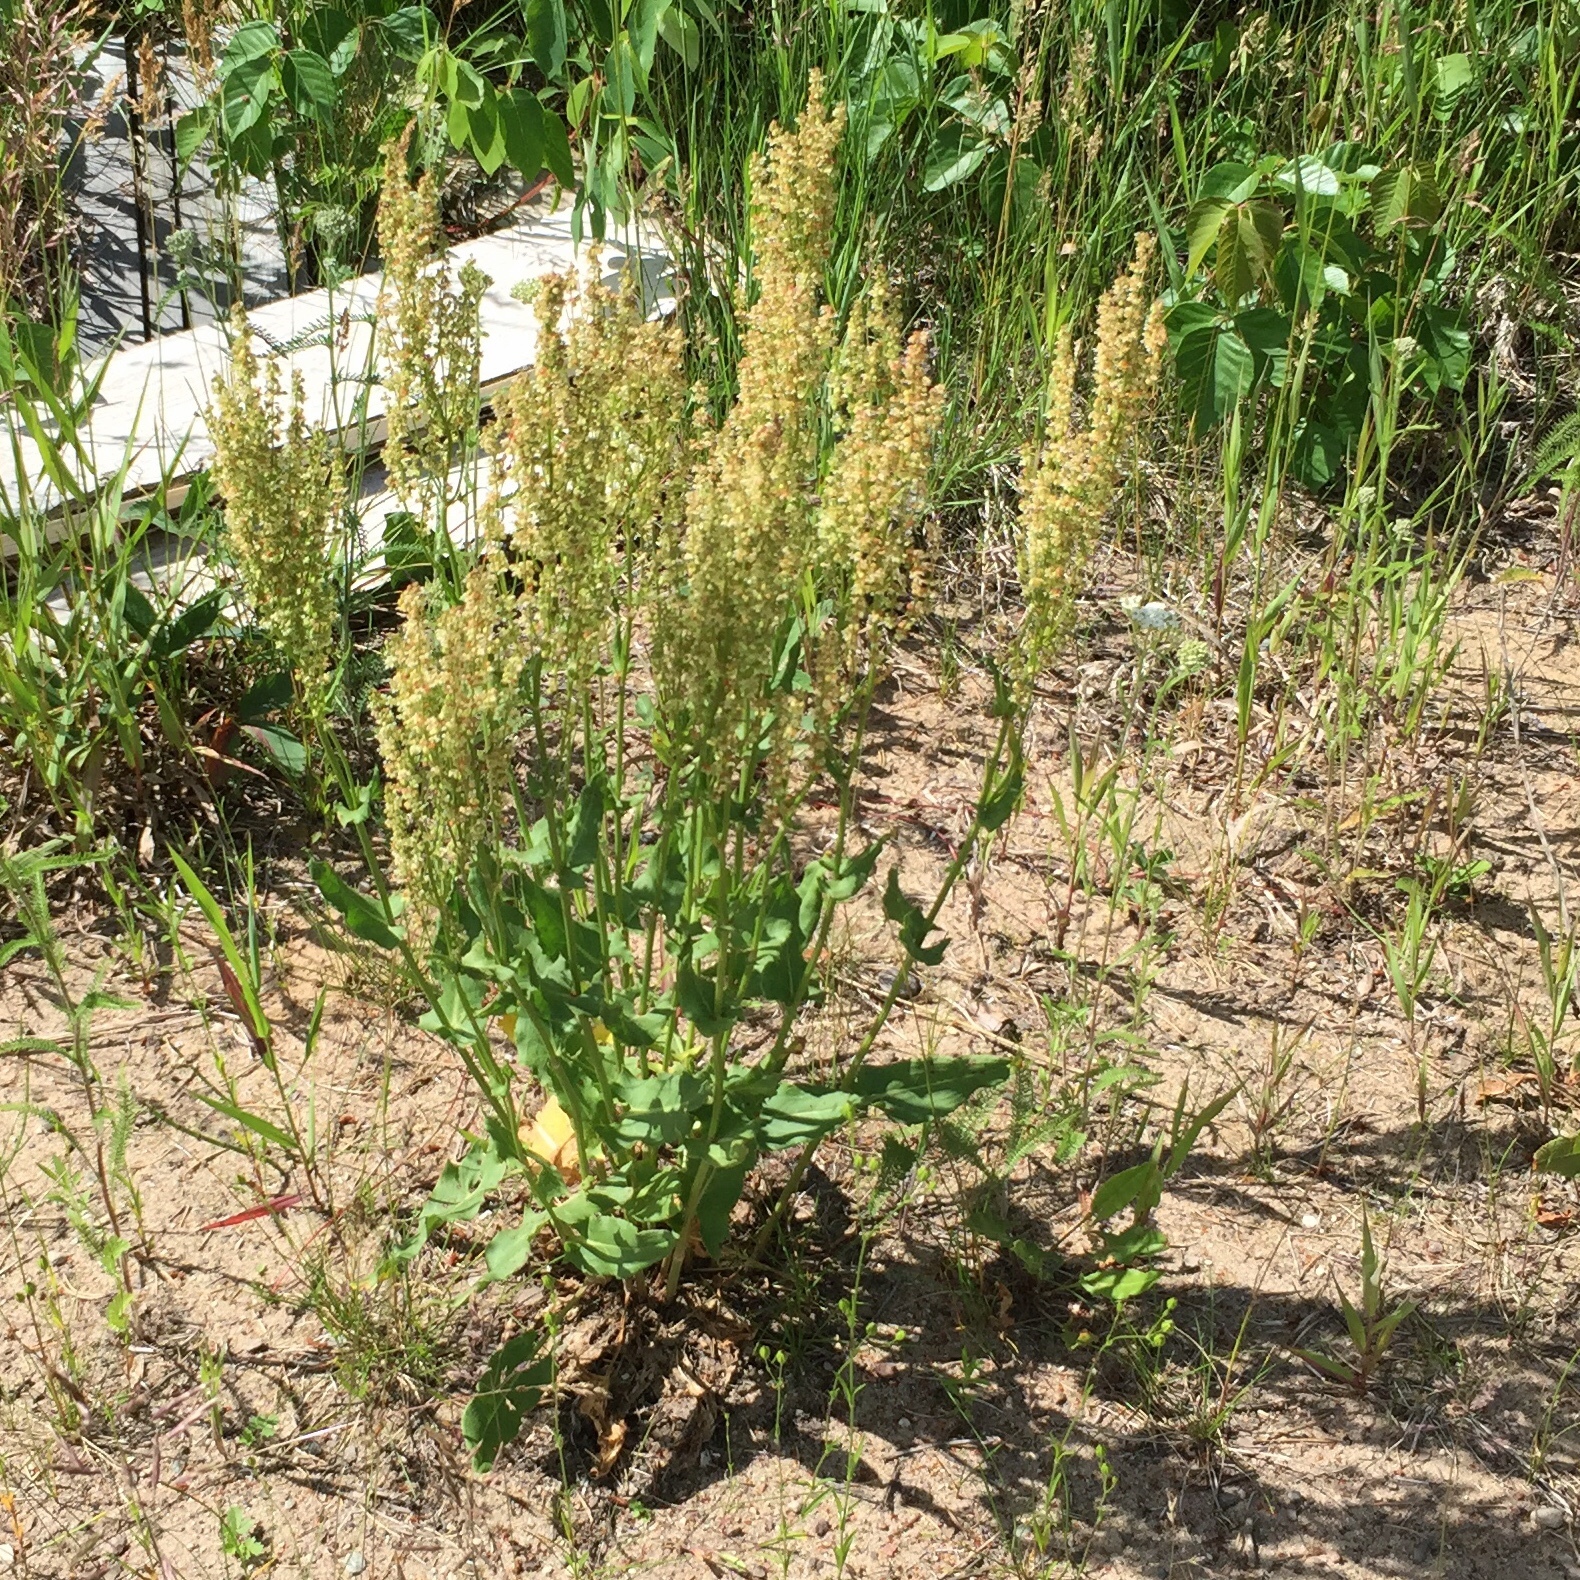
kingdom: Plantae
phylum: Tracheophyta
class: Magnoliopsida
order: Caryophyllales
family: Polygonaceae
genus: Rumex
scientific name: Rumex crispus
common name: Curled dock
